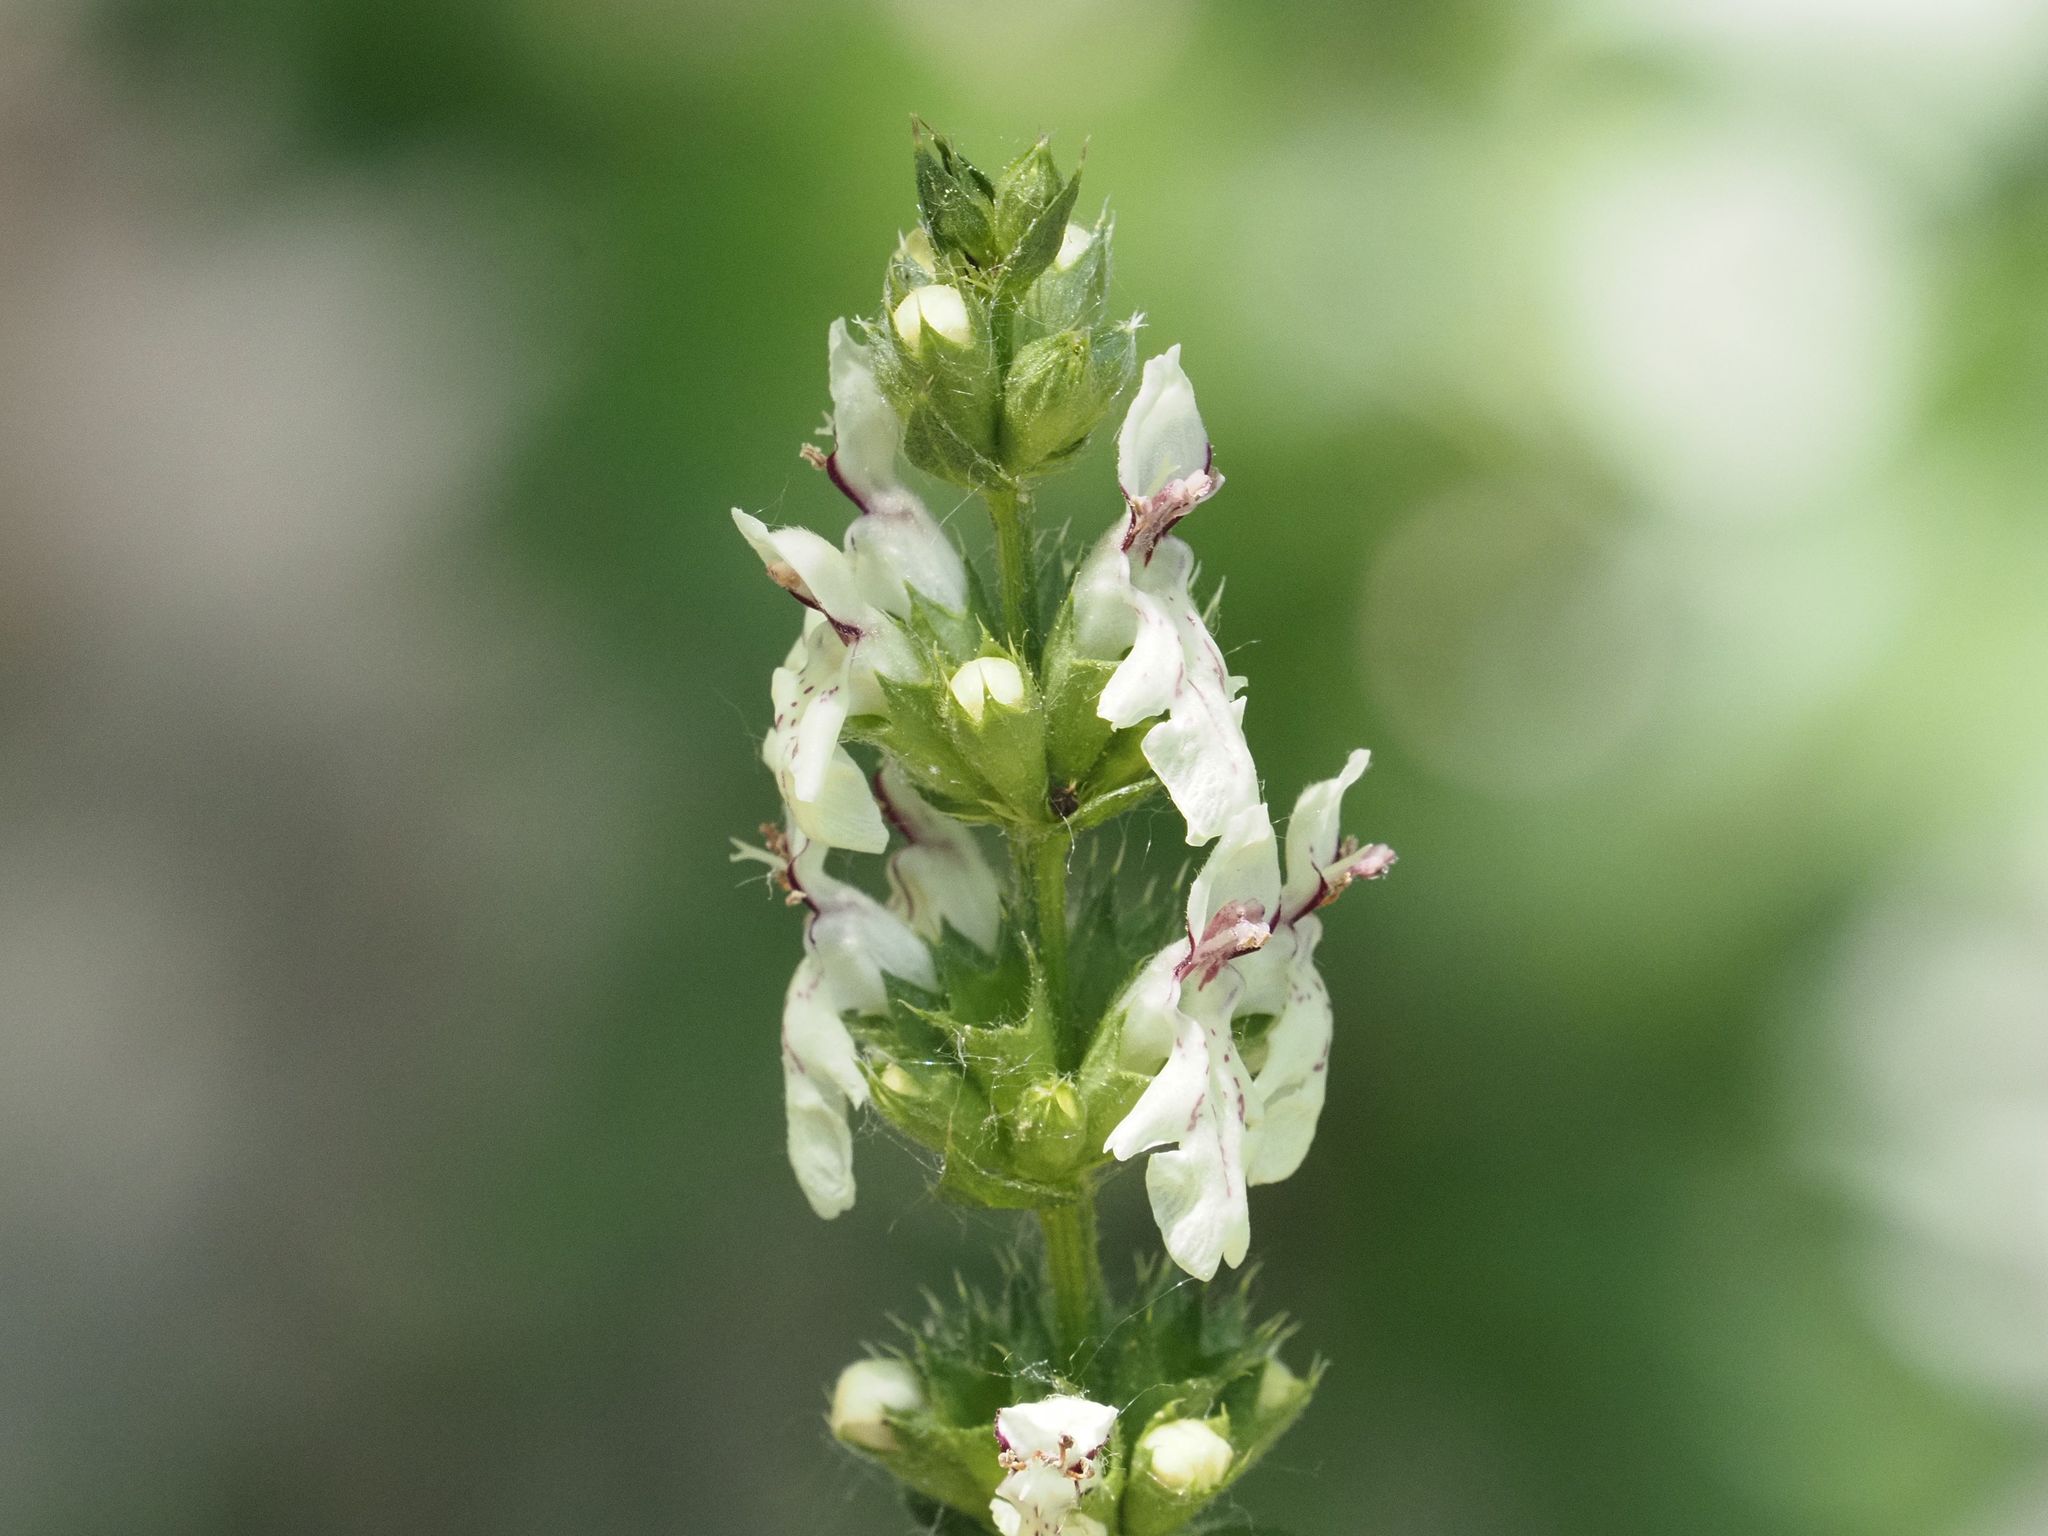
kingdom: Plantae
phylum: Tracheophyta
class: Magnoliopsida
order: Lamiales
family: Lamiaceae
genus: Stachys
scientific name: Stachys recta
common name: Perennial yellow-woundwort
